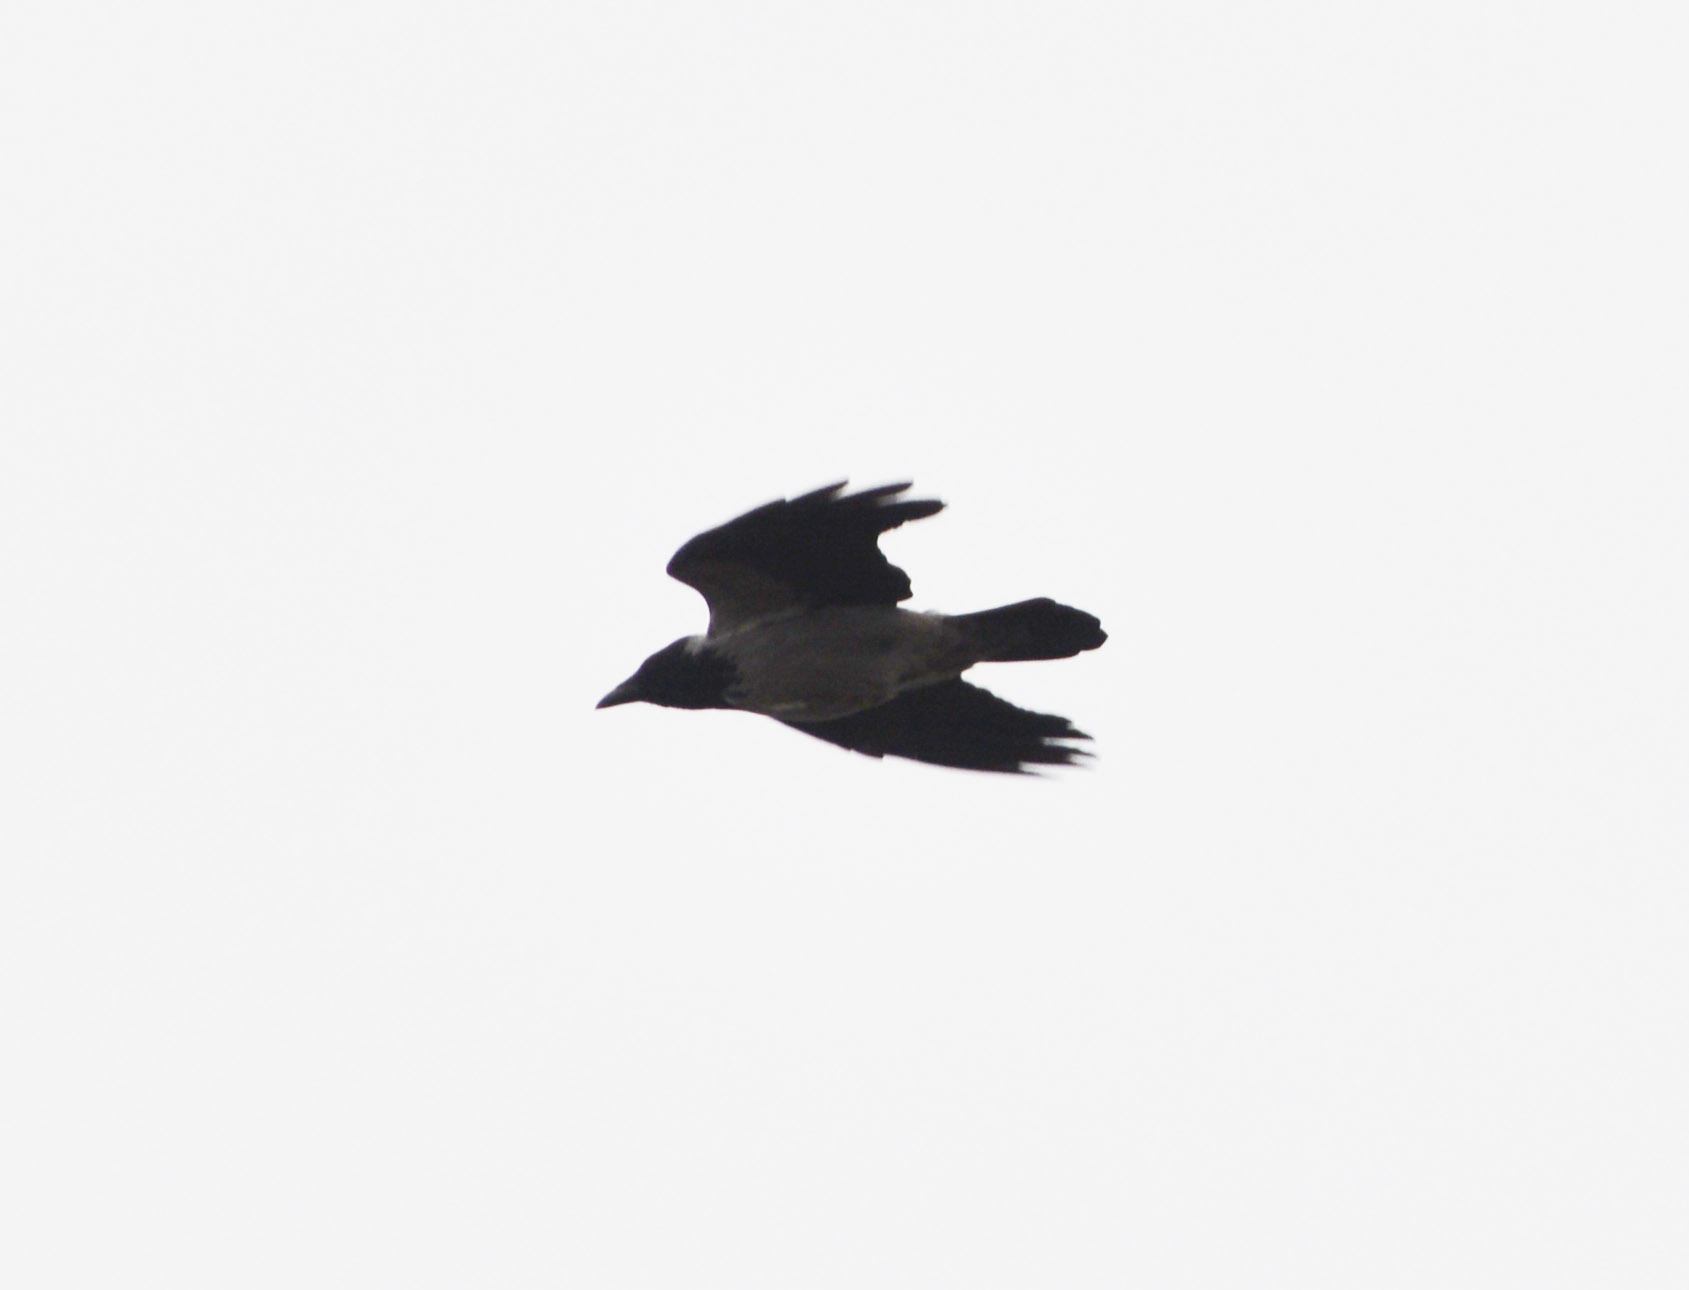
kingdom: Animalia
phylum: Chordata
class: Aves
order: Passeriformes
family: Corvidae
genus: Corvus
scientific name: Corvus cornix
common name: Hooded crow
